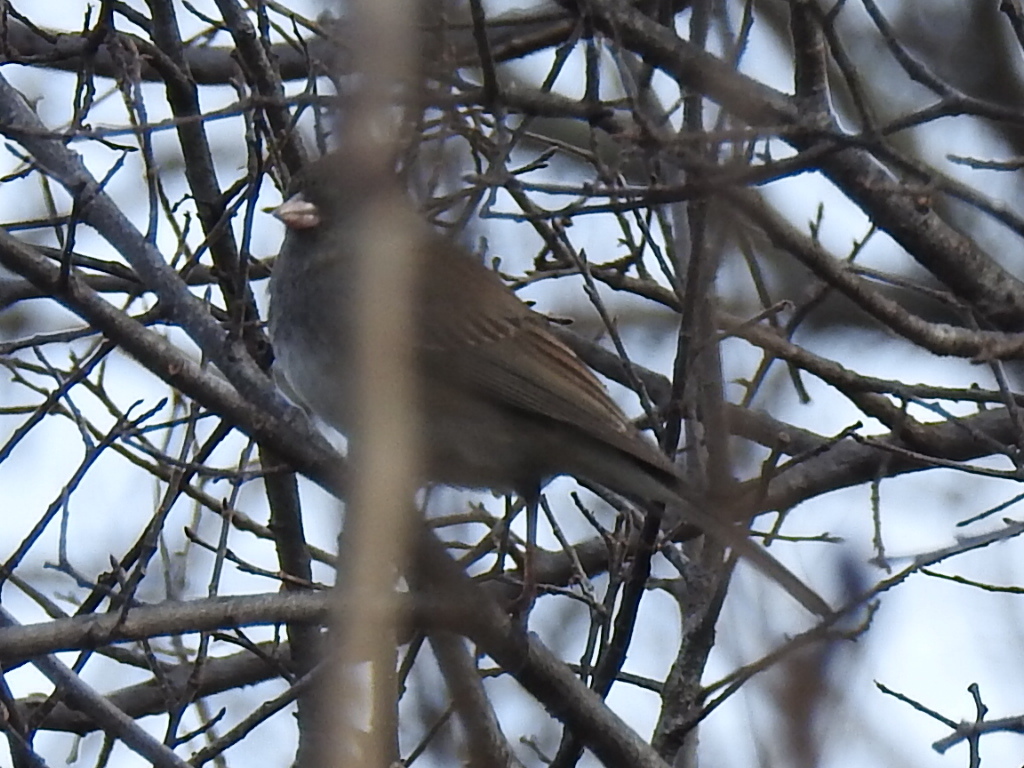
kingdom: Animalia
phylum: Chordata
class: Aves
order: Passeriformes
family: Passerellidae
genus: Junco
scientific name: Junco hyemalis
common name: Dark-eyed junco
